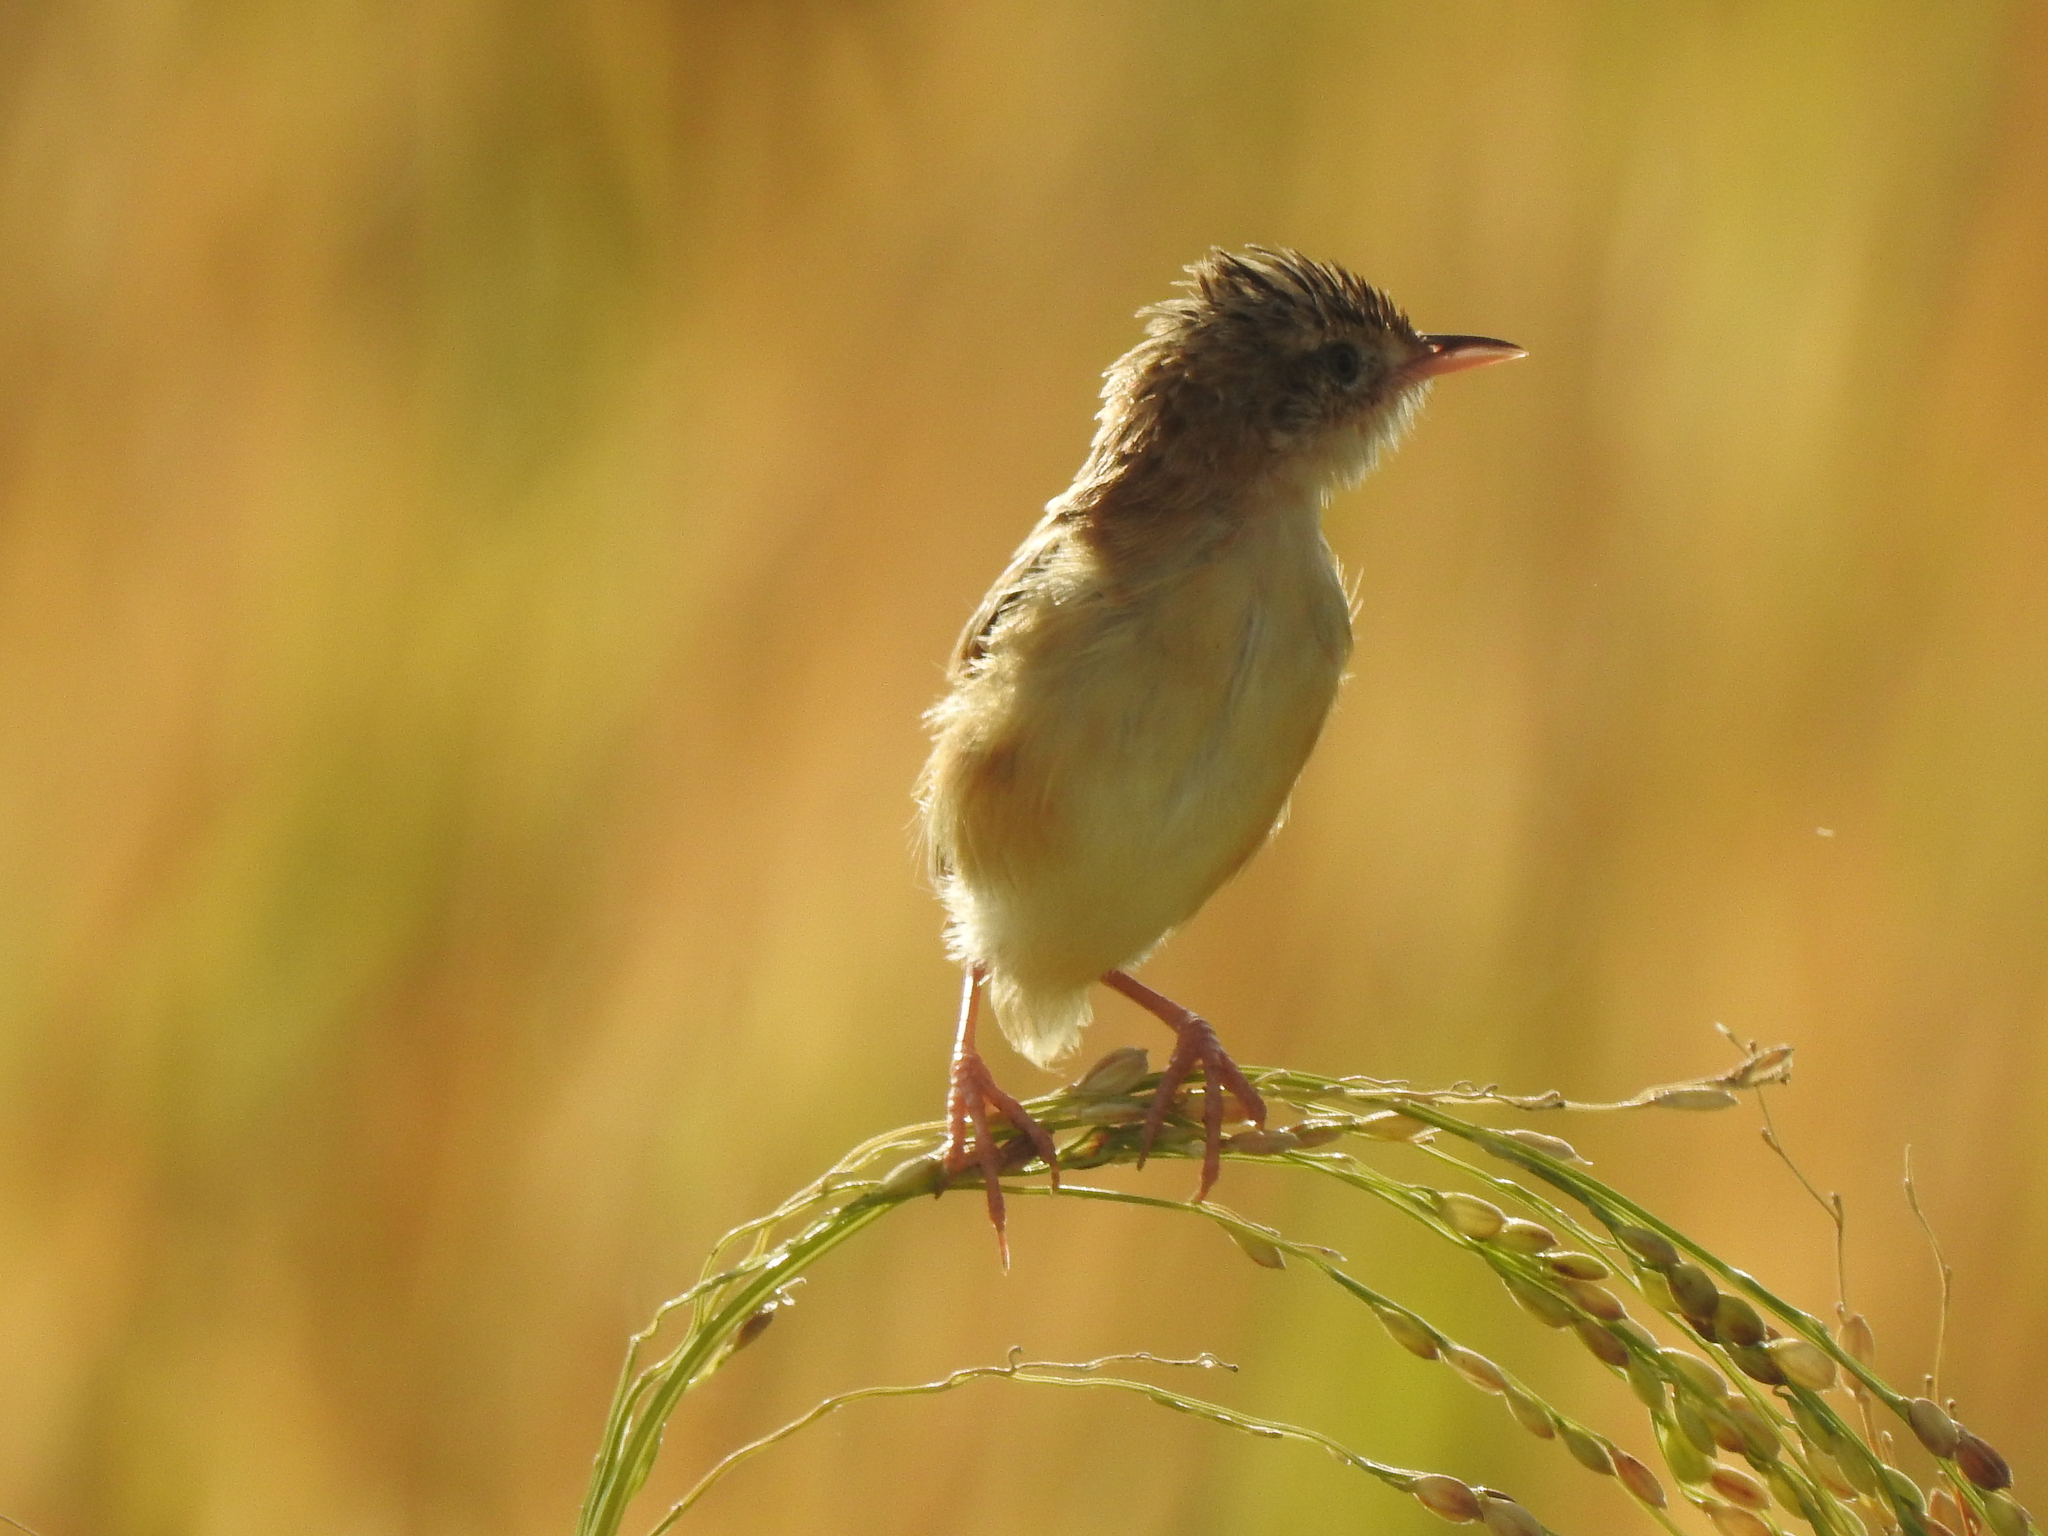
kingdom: Animalia
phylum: Chordata
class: Aves
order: Passeriformes
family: Cisticolidae
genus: Cisticola
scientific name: Cisticola juncidis
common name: Zitting cisticola
